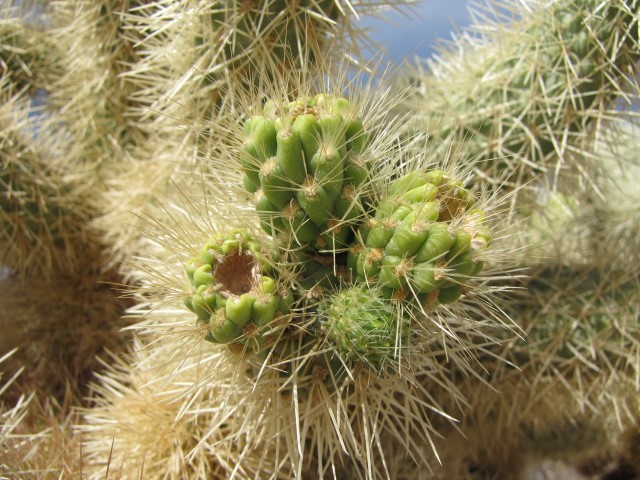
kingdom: Plantae
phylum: Tracheophyta
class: Magnoliopsida
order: Caryophyllales
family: Cactaceae
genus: Cylindropuntia
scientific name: Cylindropuntia fosbergii
